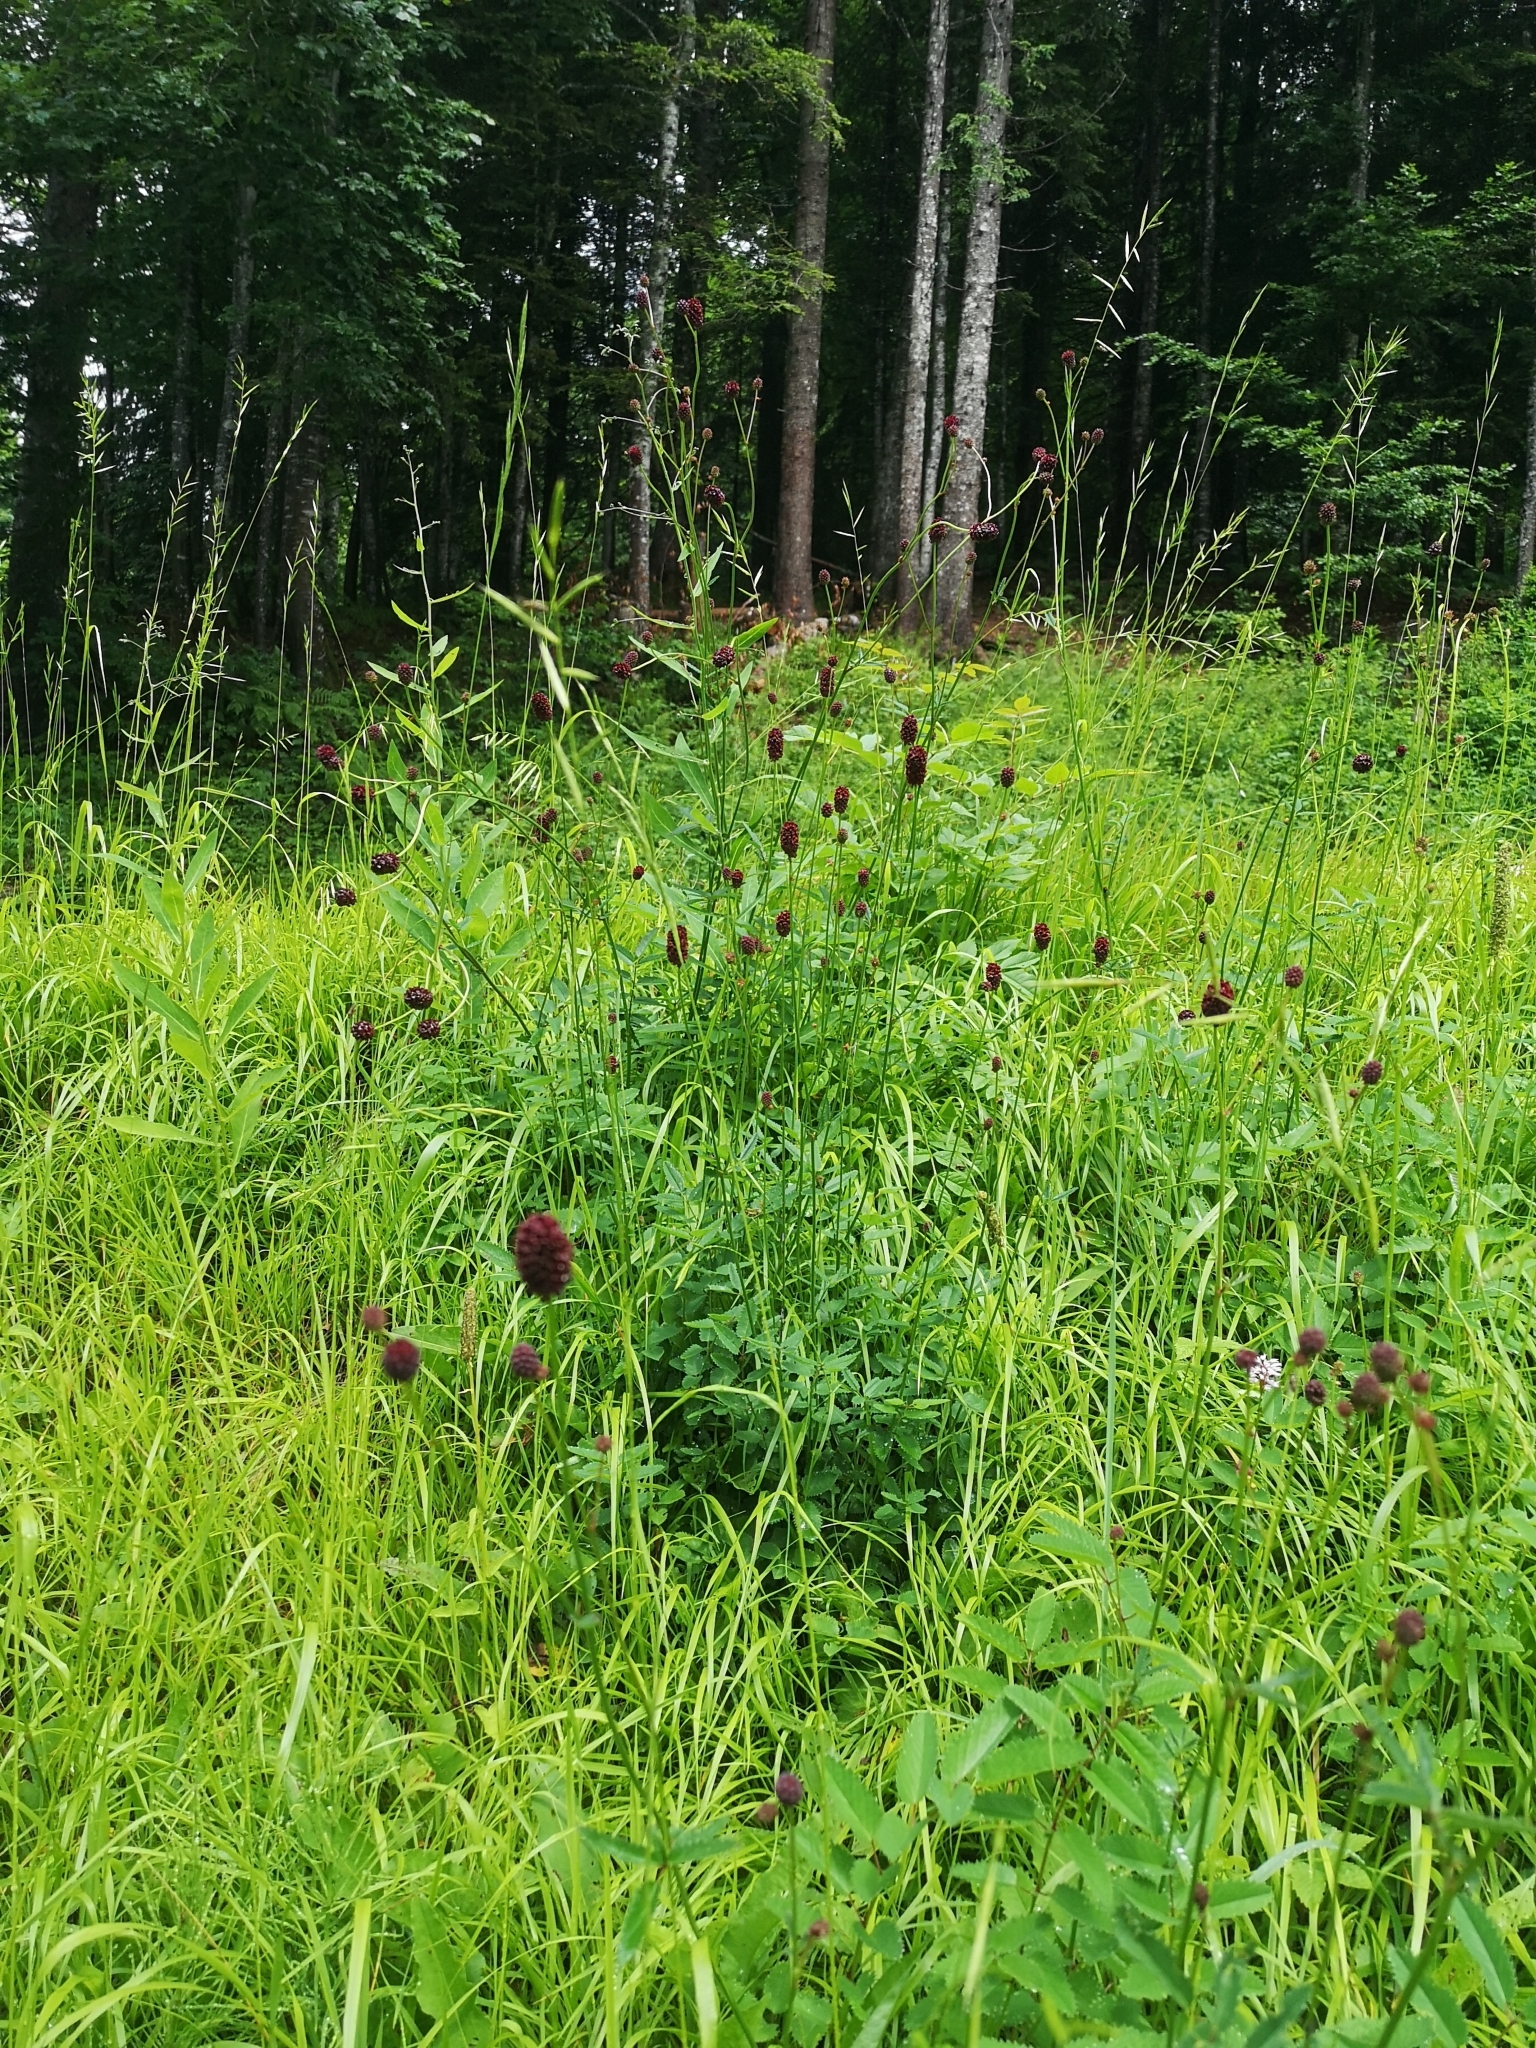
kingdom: Plantae
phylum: Tracheophyta
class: Magnoliopsida
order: Rosales
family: Rosaceae
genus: Sanguisorba
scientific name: Sanguisorba officinalis
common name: Great burnet
